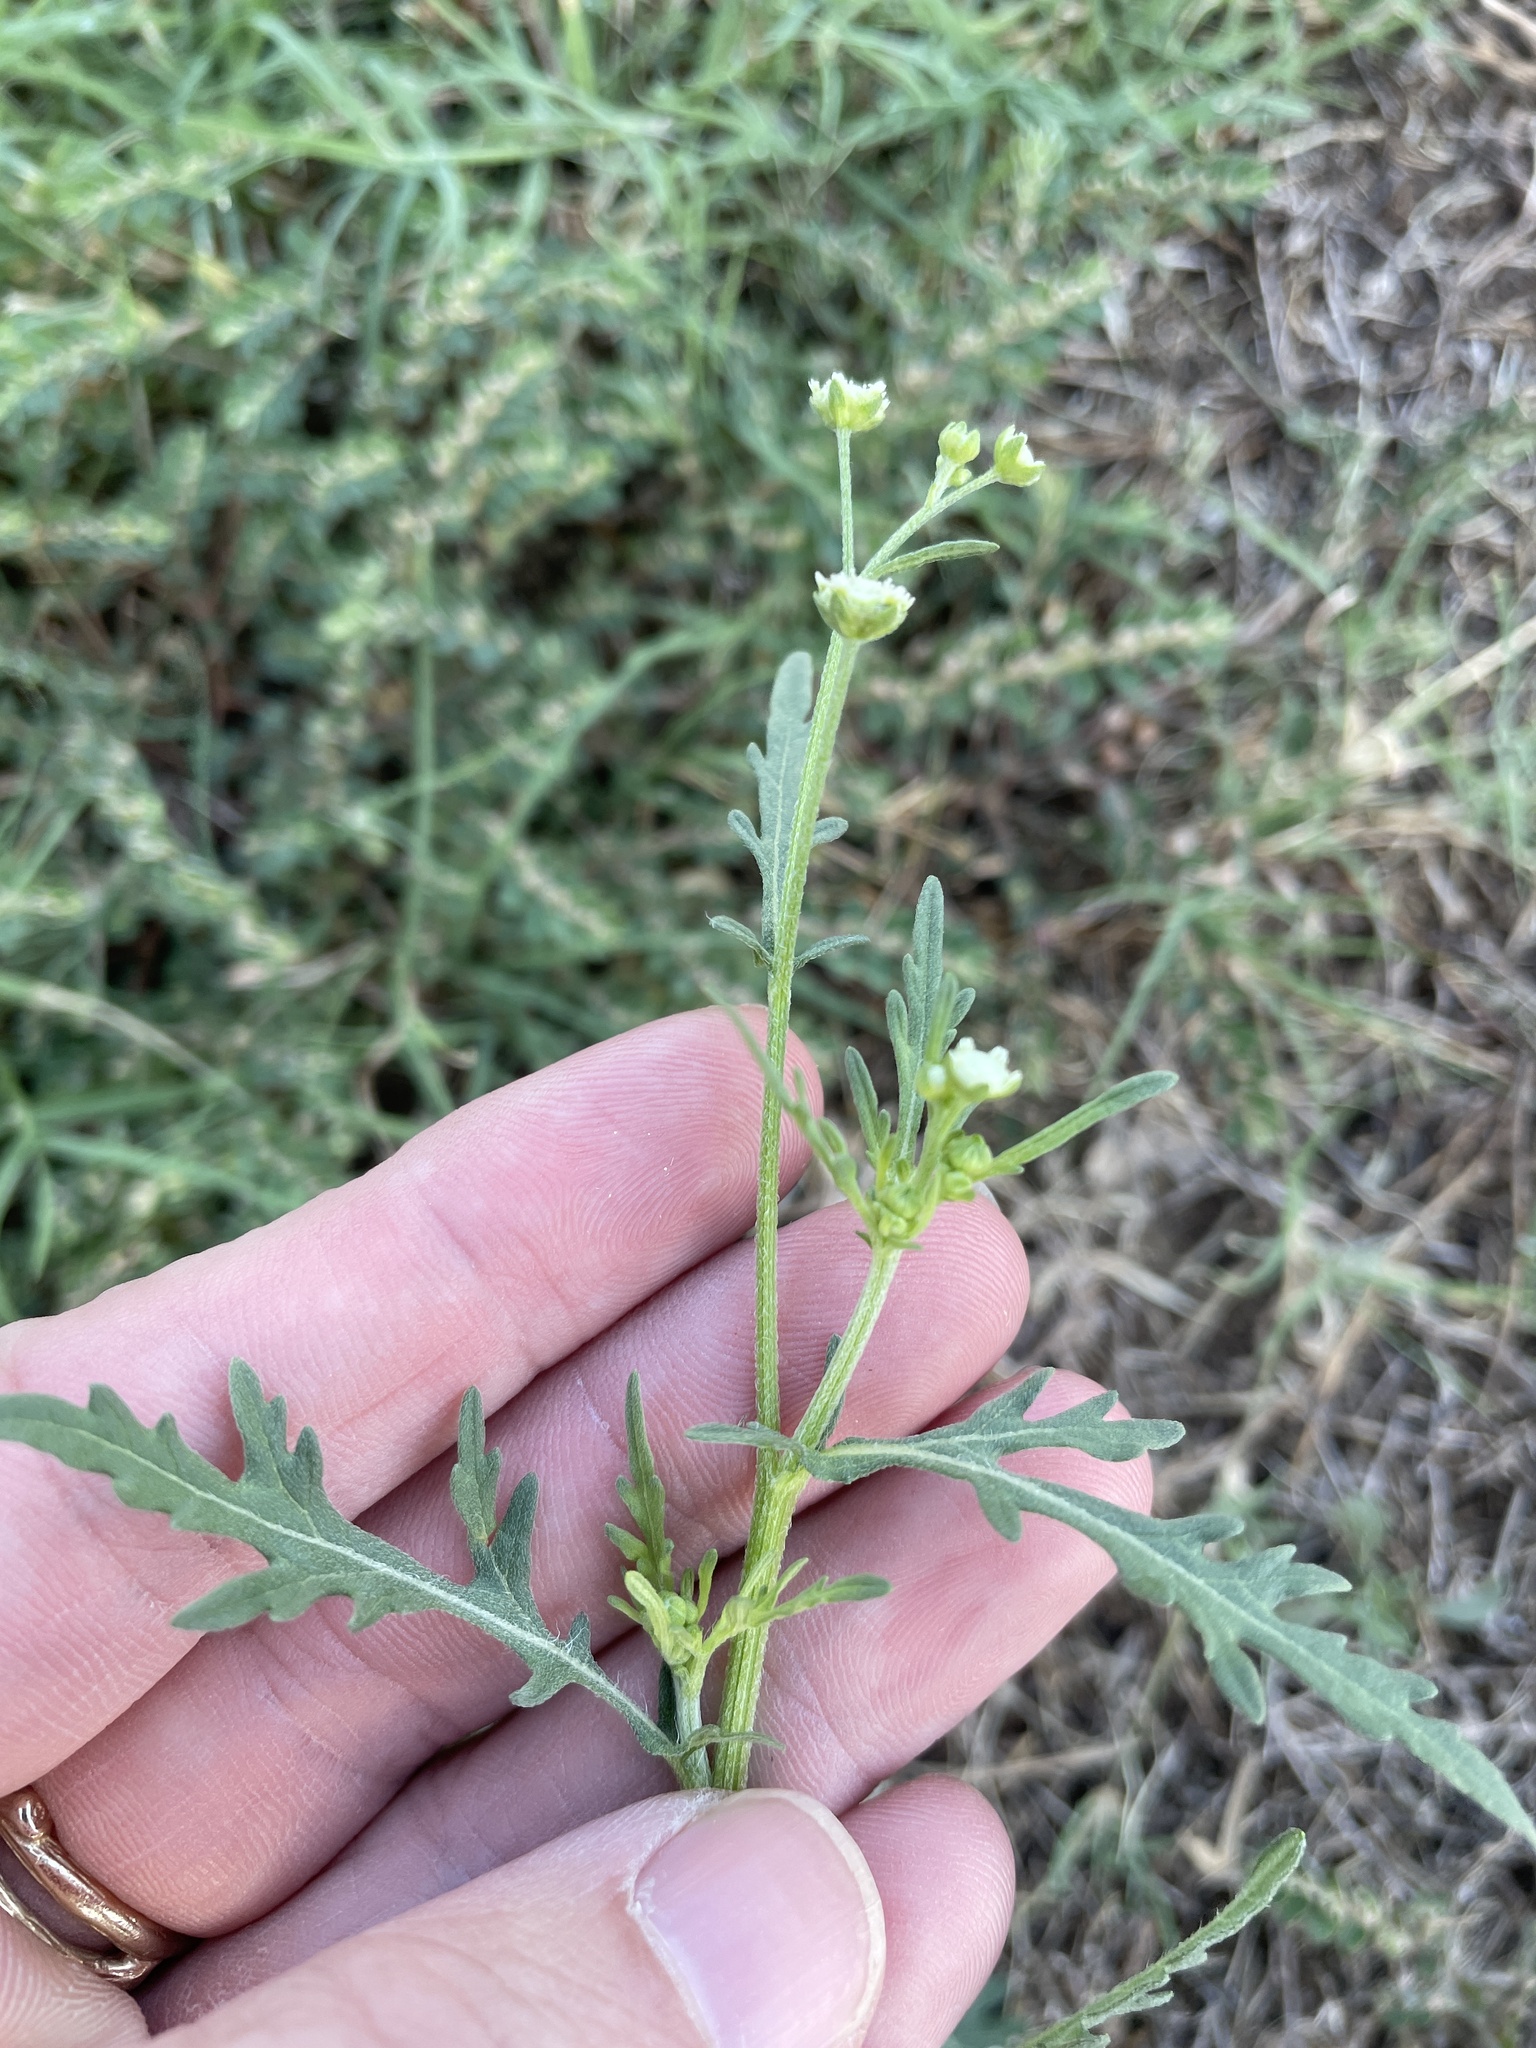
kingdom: Plantae
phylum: Tracheophyta
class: Magnoliopsida
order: Asterales
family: Asteraceae
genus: Parthenium
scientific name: Parthenium hysterophorus
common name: Santa maria feverfew
